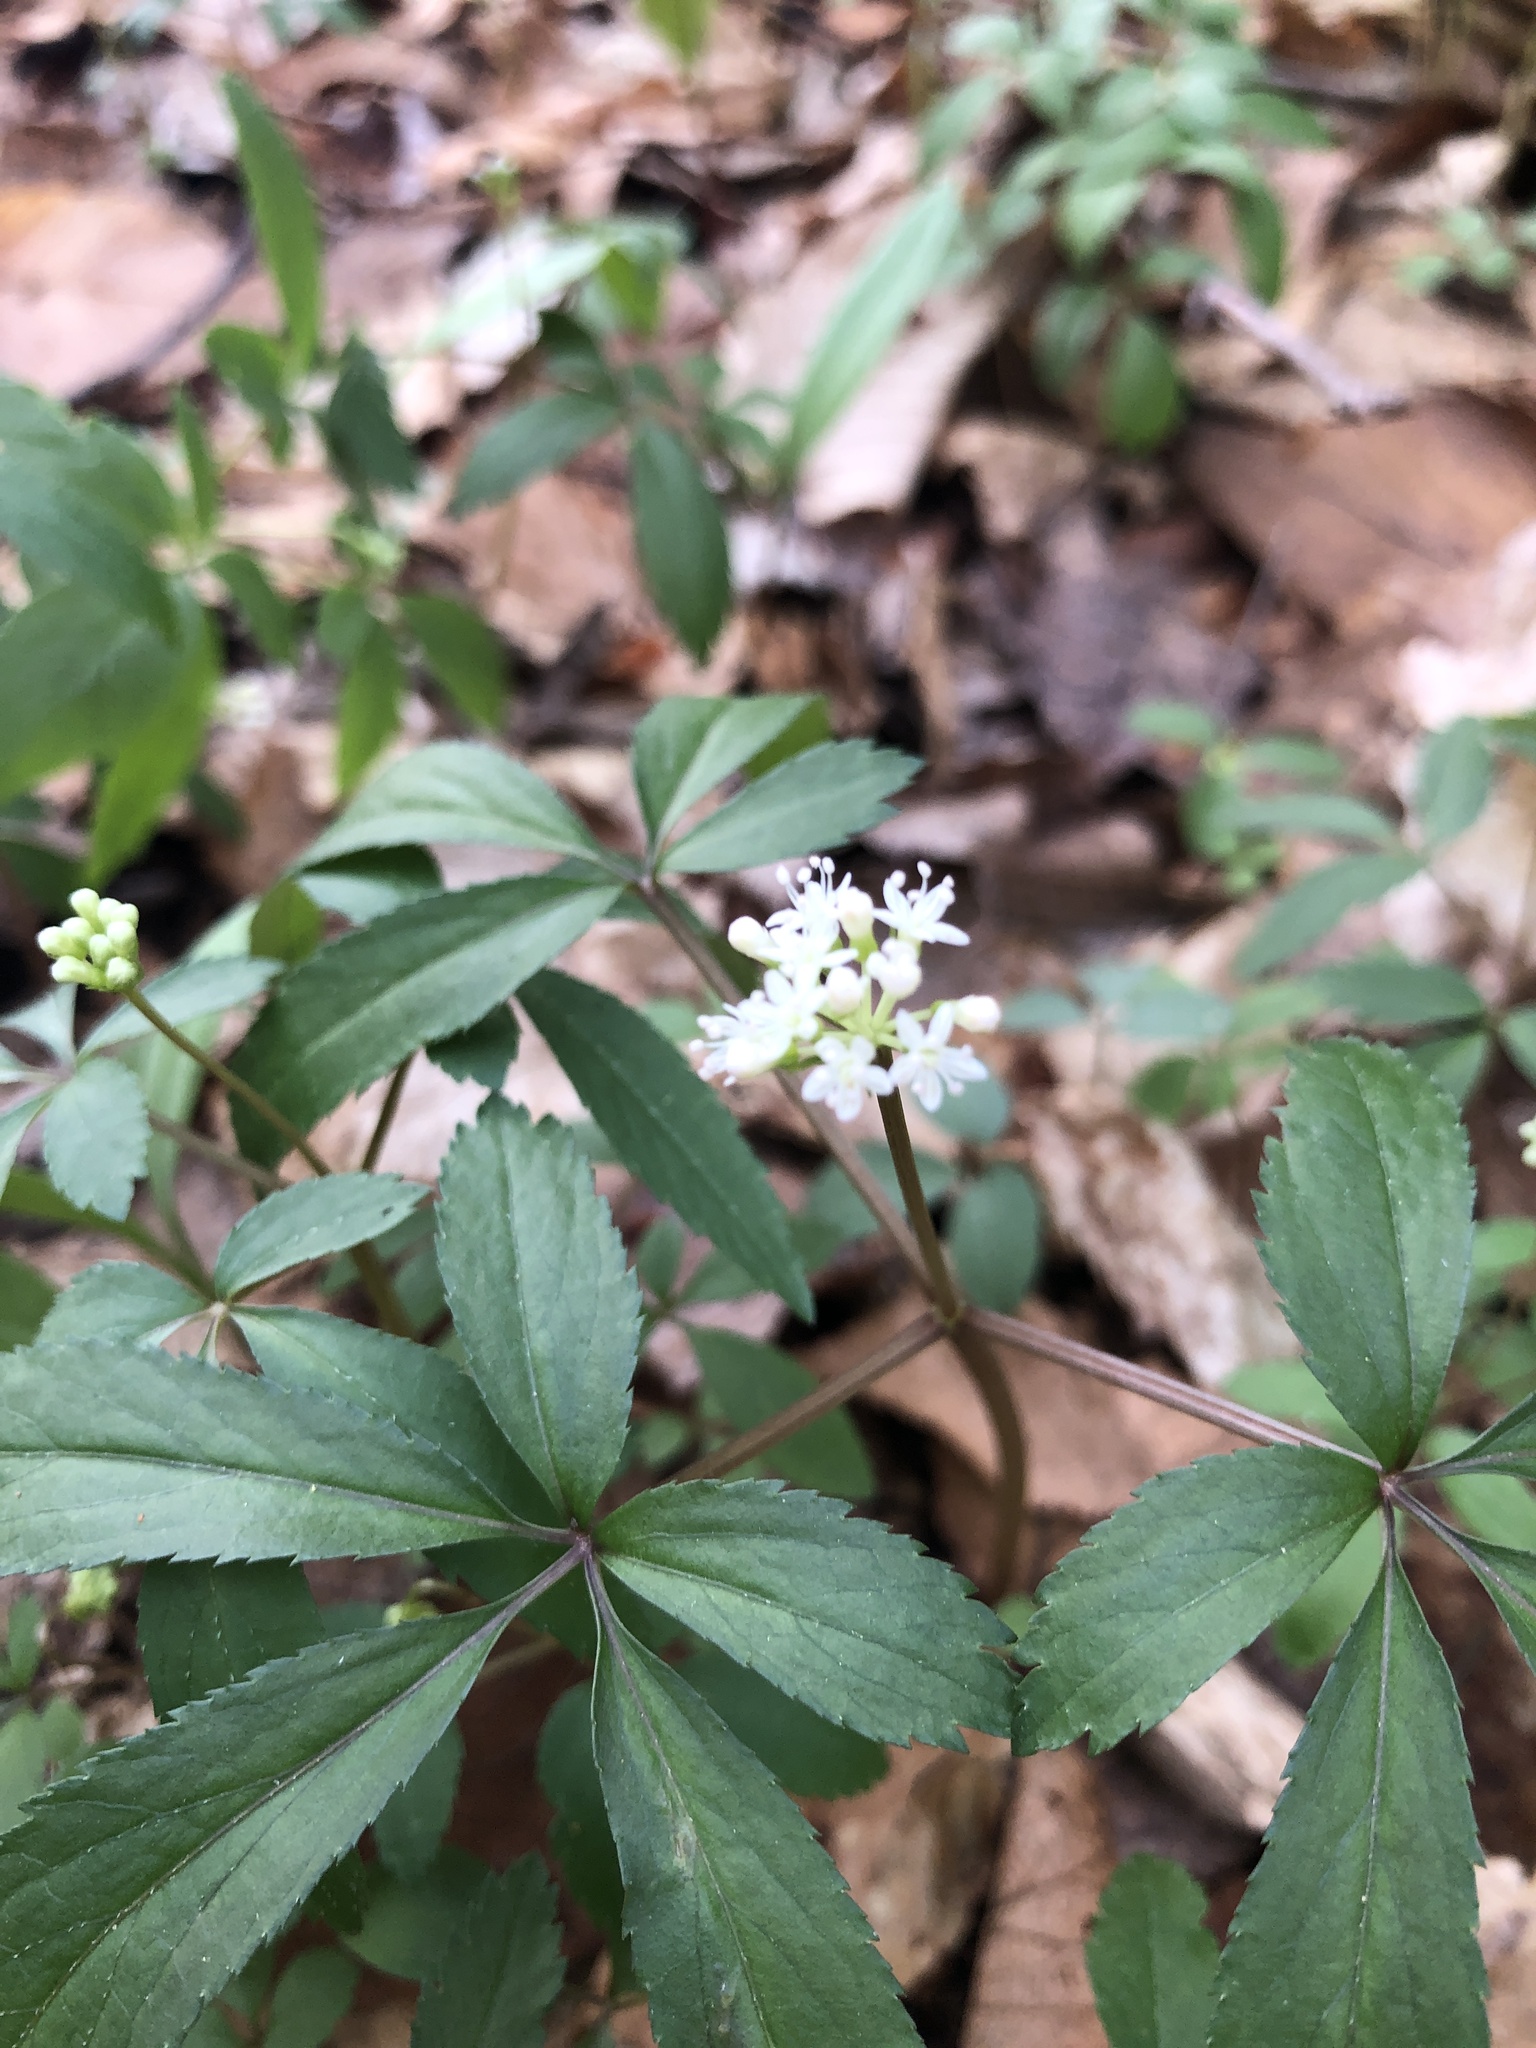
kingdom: Plantae
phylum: Tracheophyta
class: Magnoliopsida
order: Apiales
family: Araliaceae
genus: Panax
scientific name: Panax trifolius
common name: Dwarf ginseng
